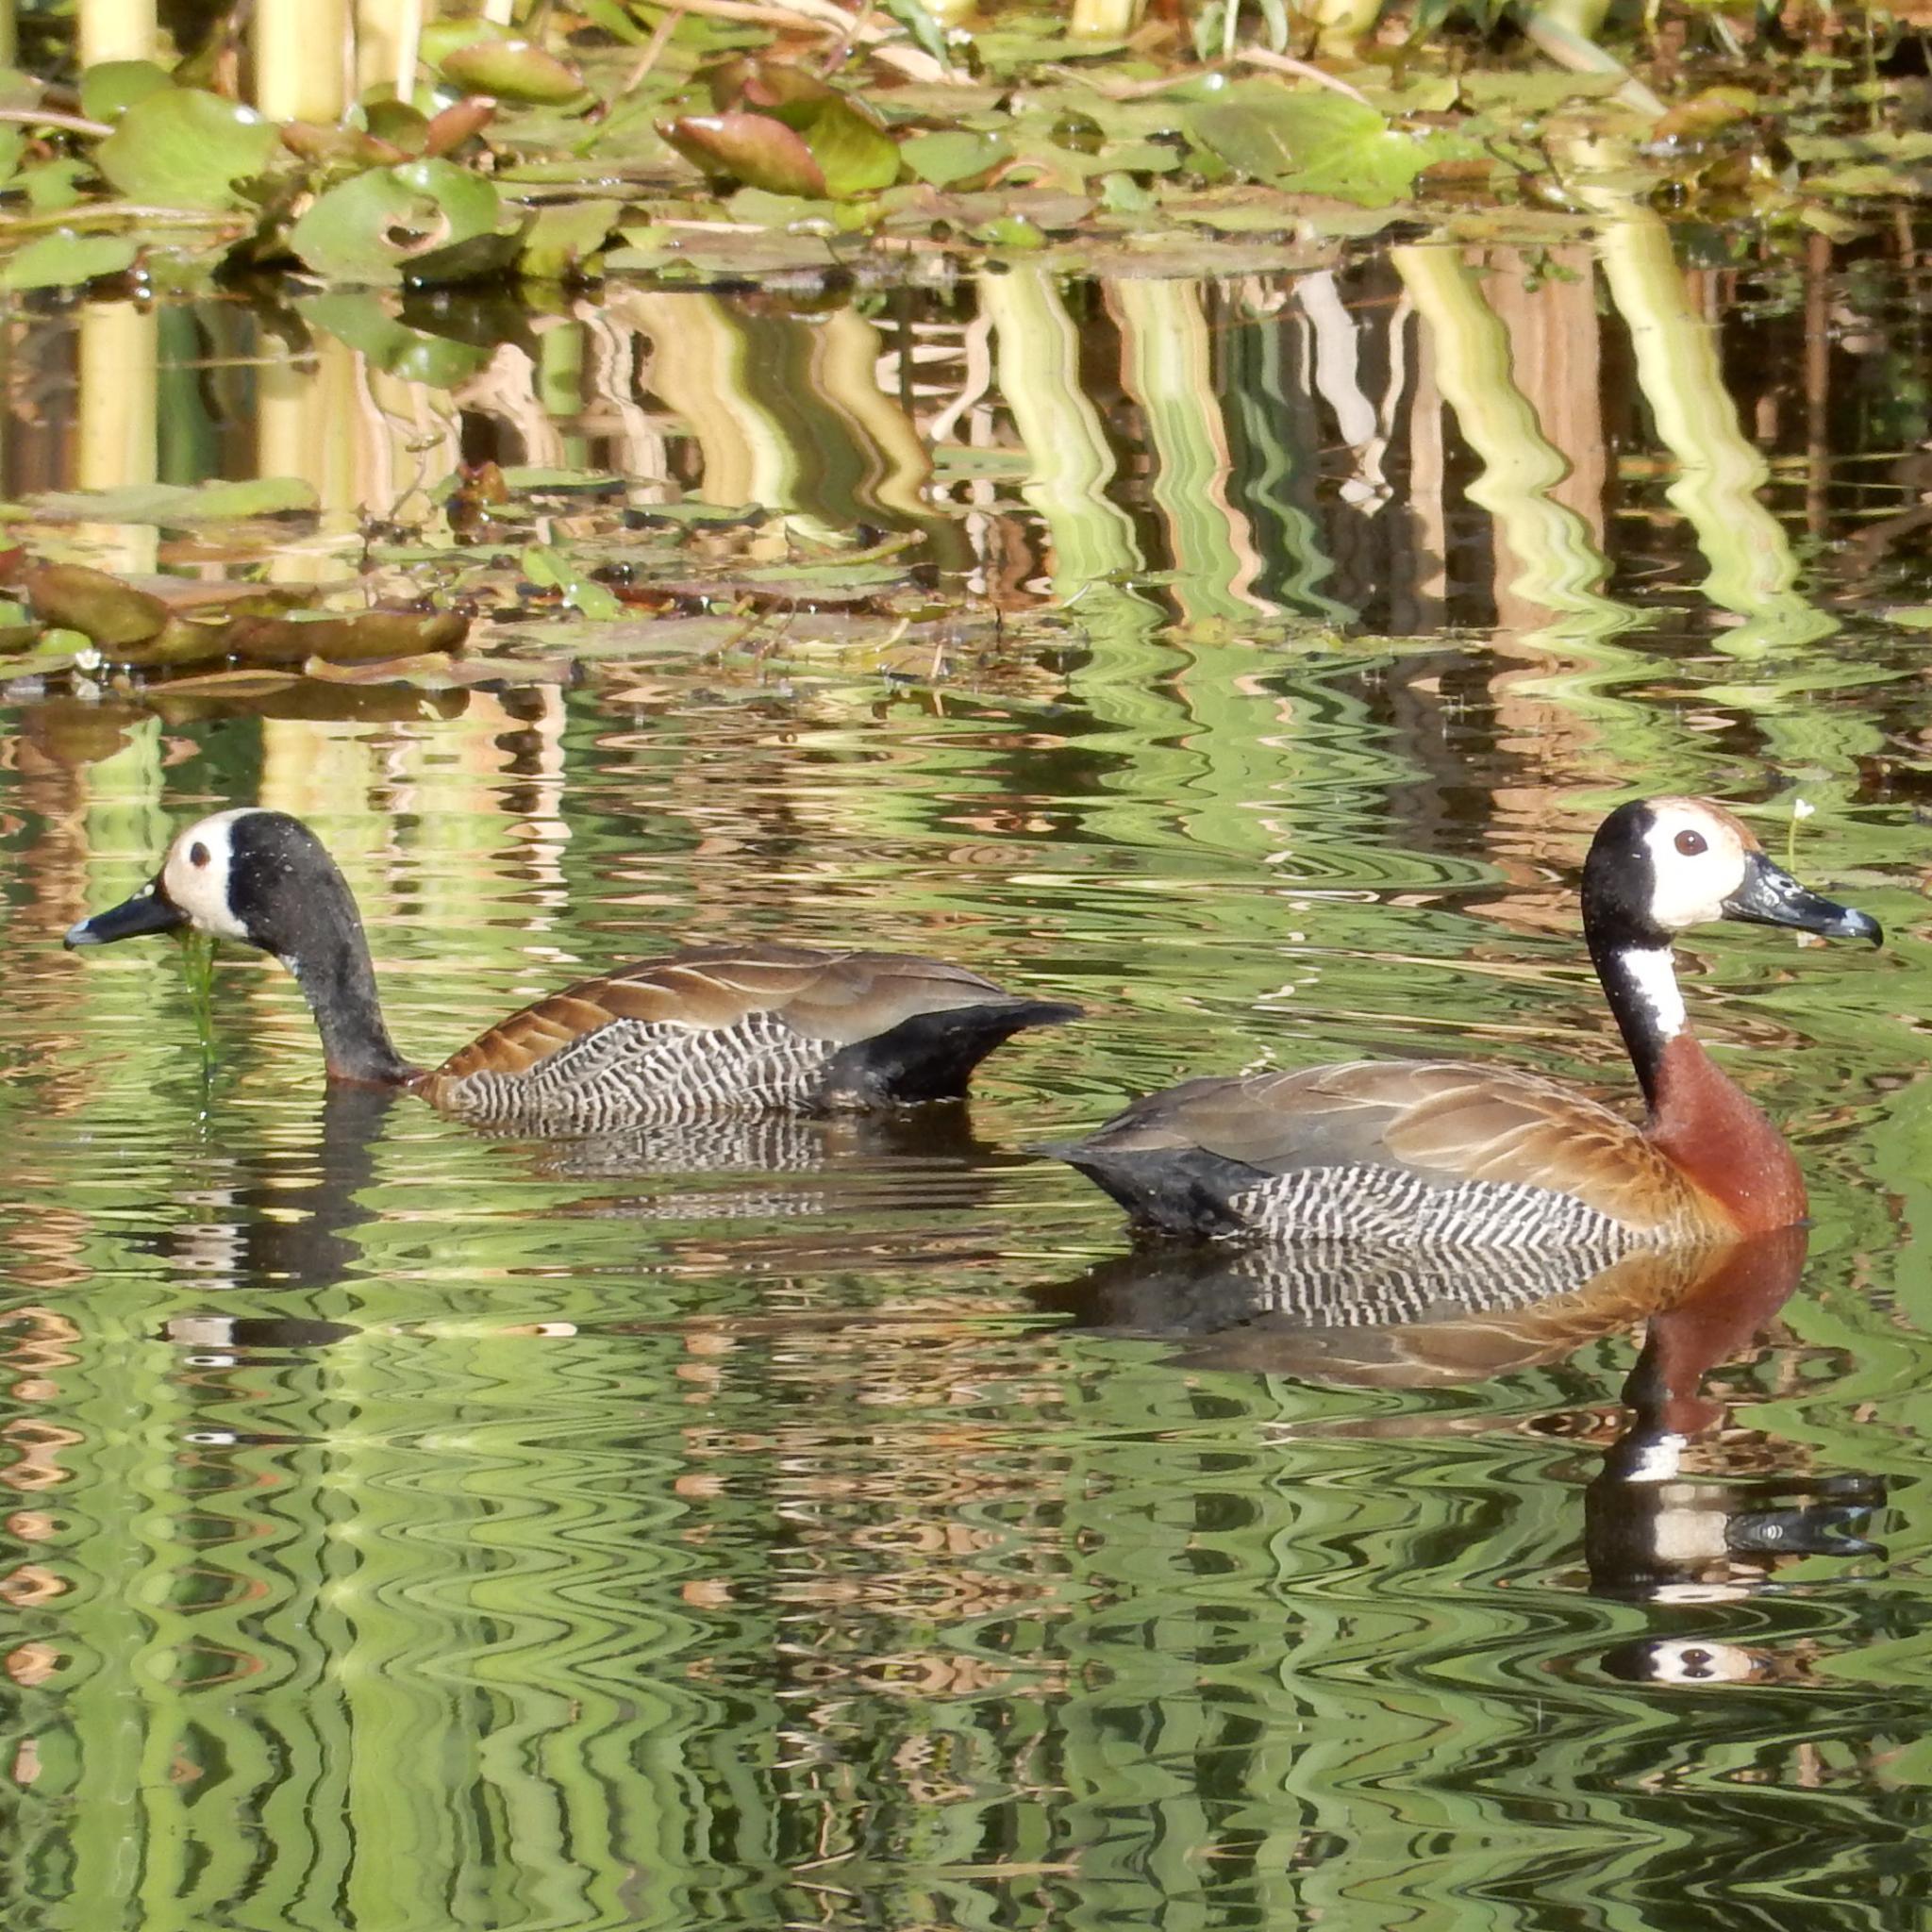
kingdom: Animalia
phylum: Chordata
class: Aves
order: Anseriformes
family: Anatidae
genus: Dendrocygna
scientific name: Dendrocygna viduata
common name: White-faced whistling duck
